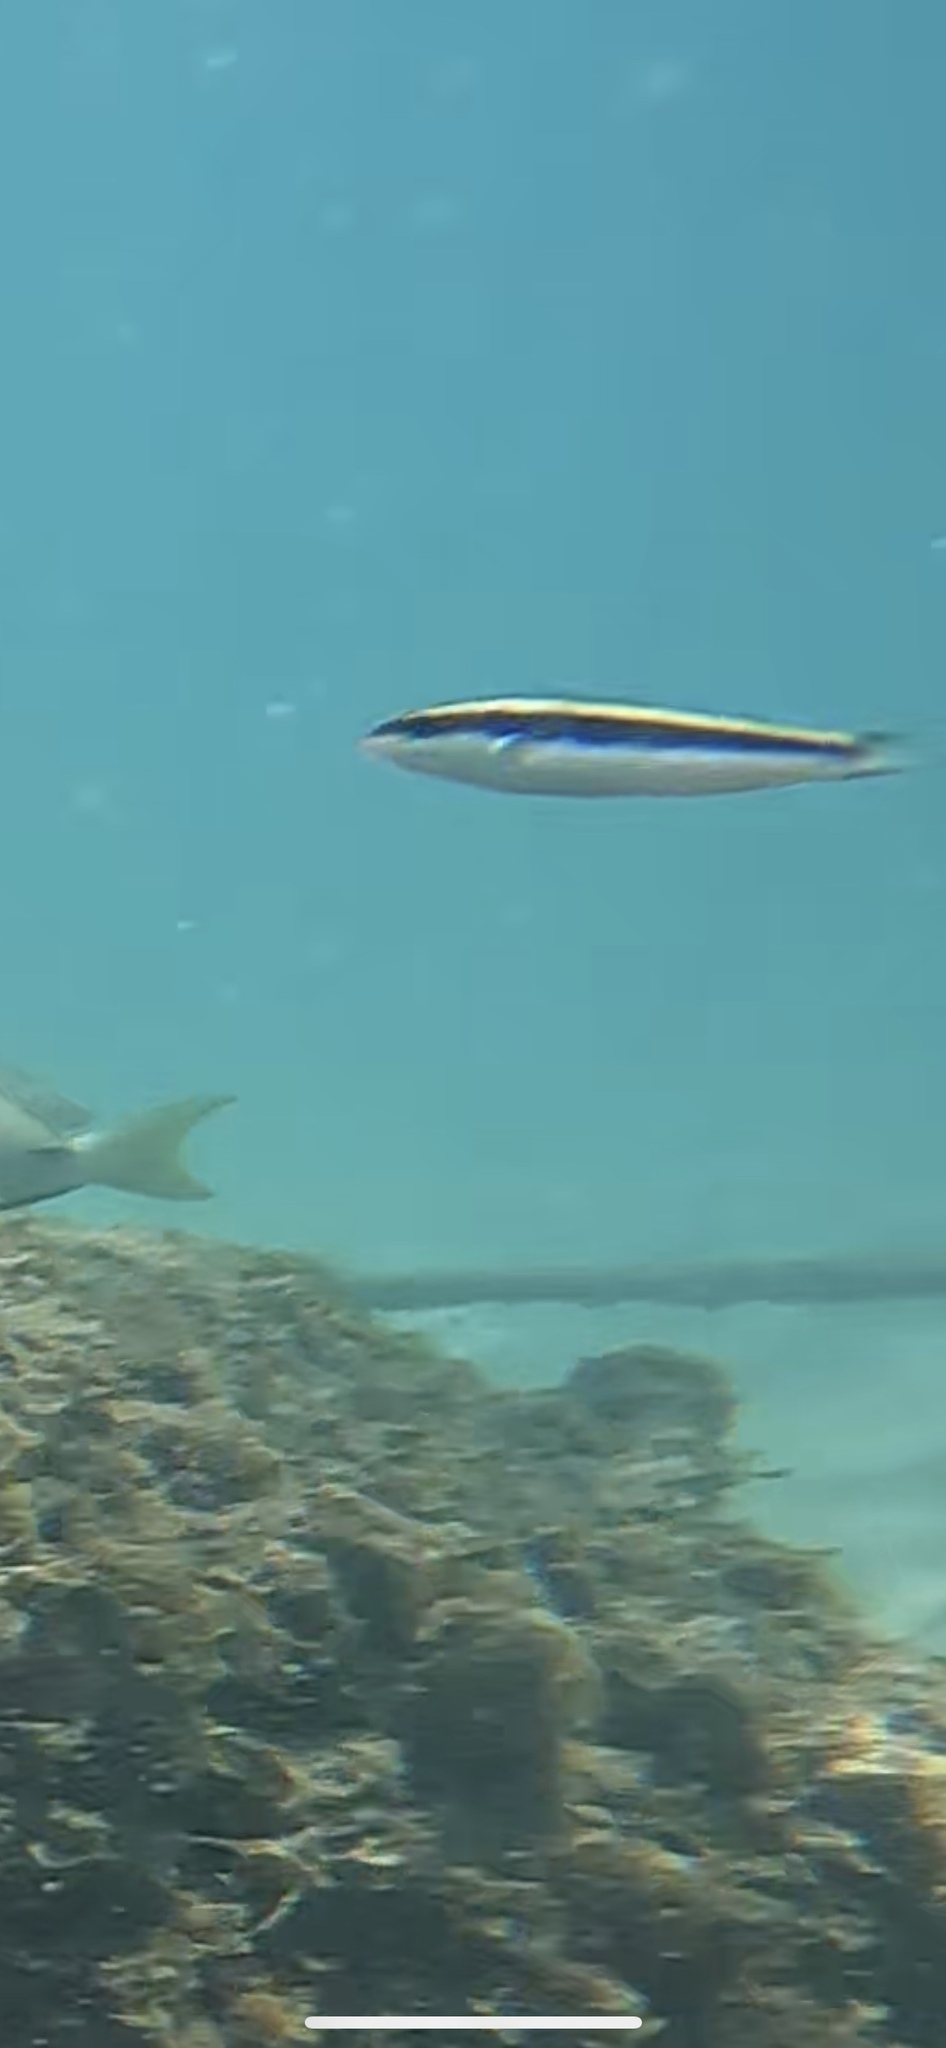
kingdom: Animalia
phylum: Chordata
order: Perciformes
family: Labridae
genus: Thalassoma
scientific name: Thalassoma bifasciatum
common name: Bluehead wrasse
